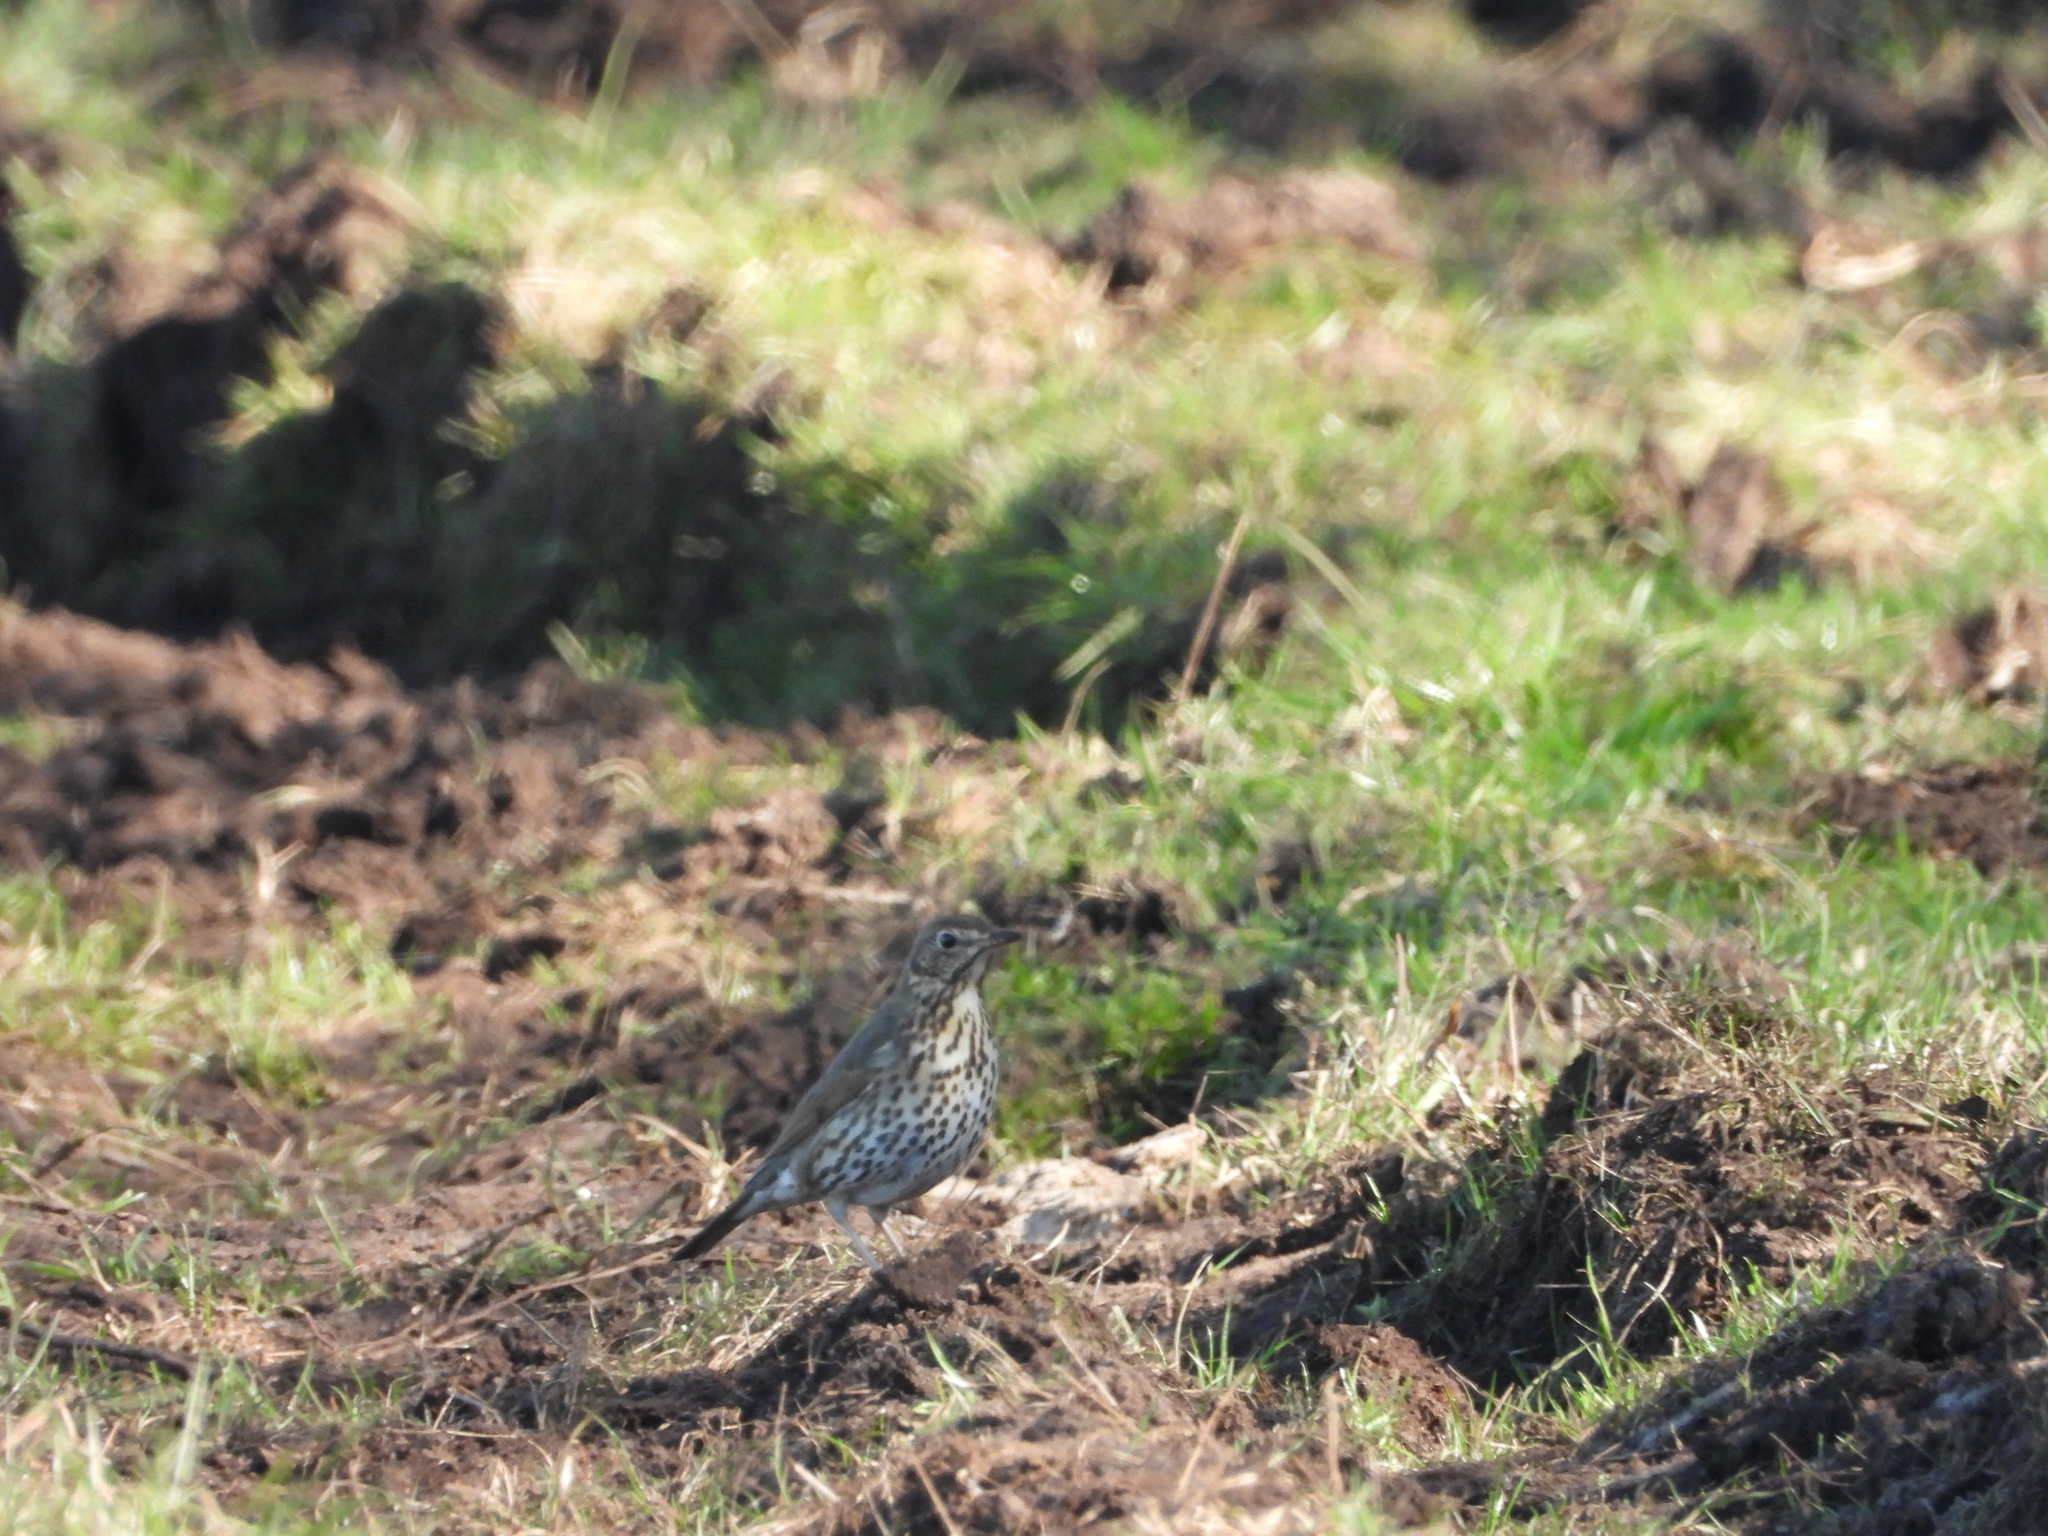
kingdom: Animalia
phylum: Chordata
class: Aves
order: Passeriformes
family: Turdidae
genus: Turdus
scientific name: Turdus philomelos
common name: Song thrush
